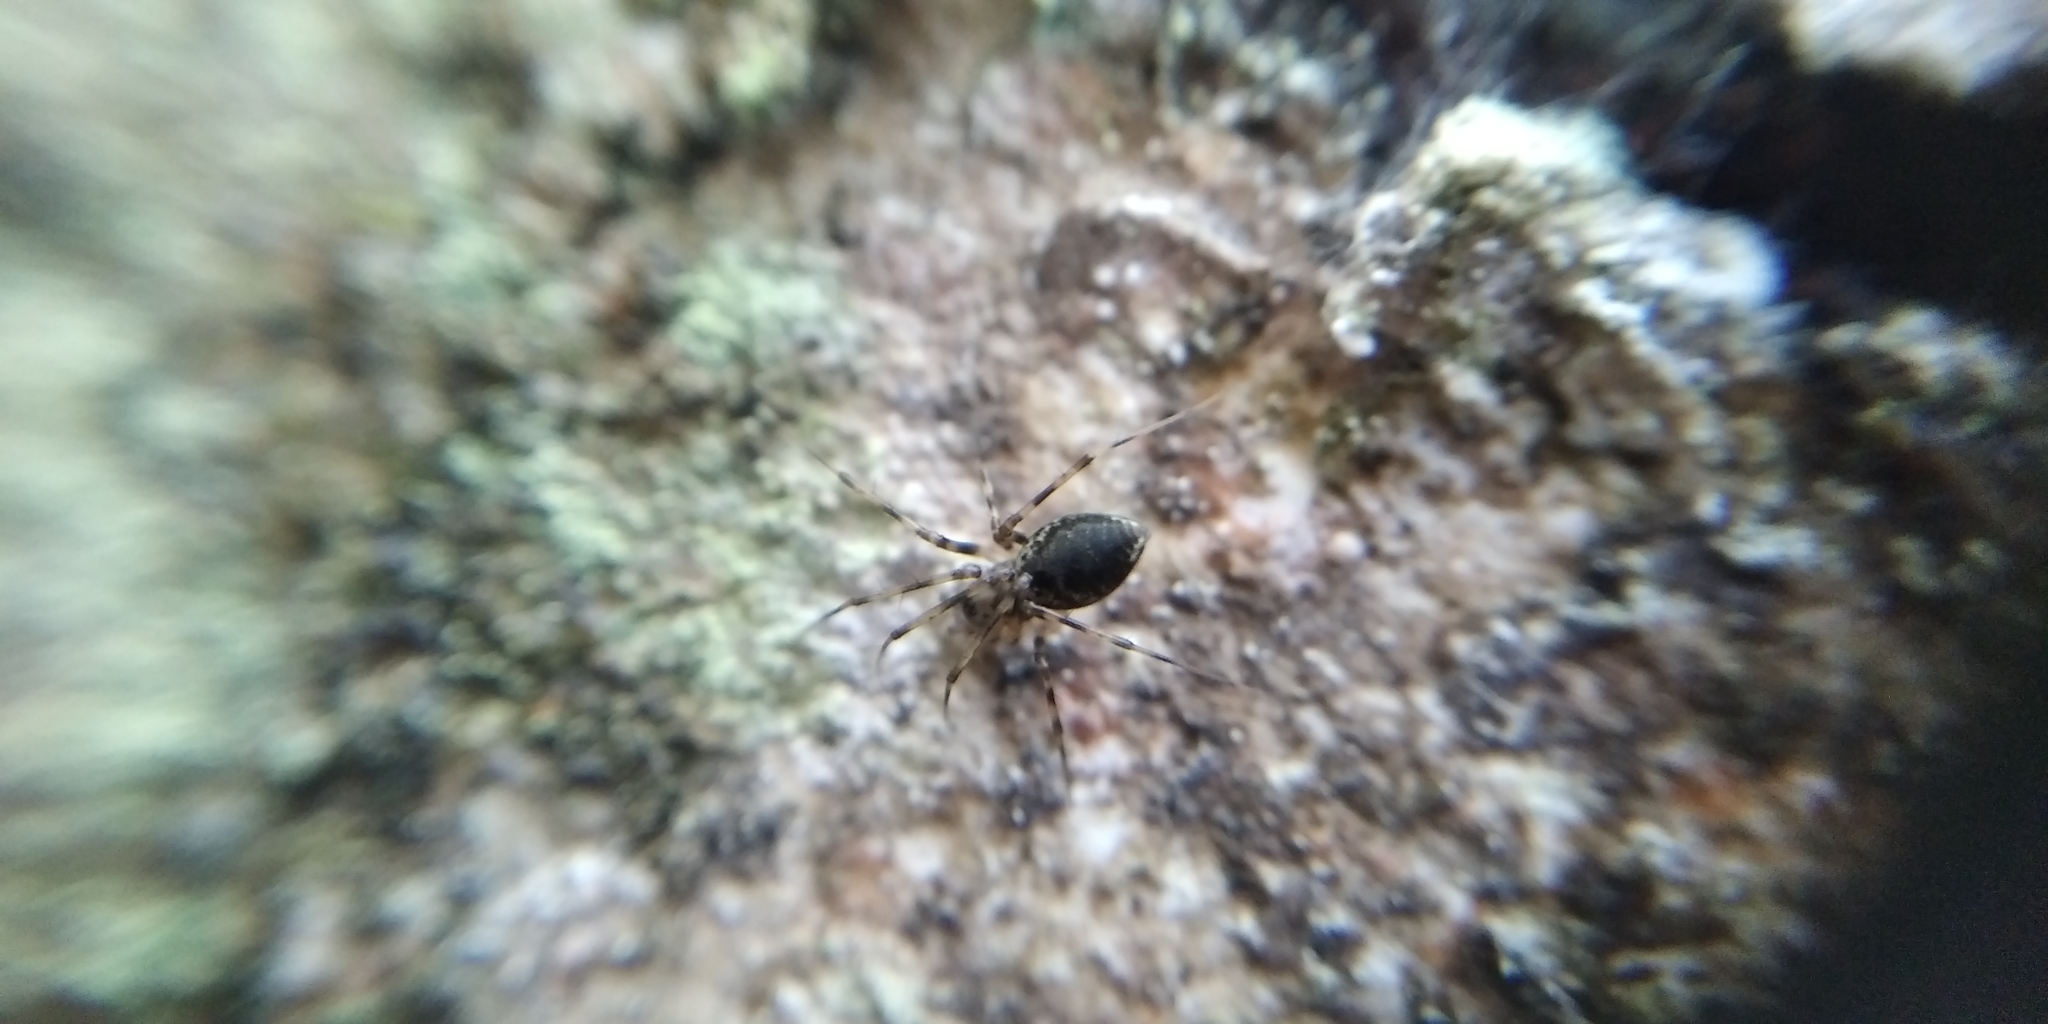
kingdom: Animalia
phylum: Arthropoda
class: Arachnida
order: Araneae
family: Linyphiidae
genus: Drapetisca
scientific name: Drapetisca socialis
